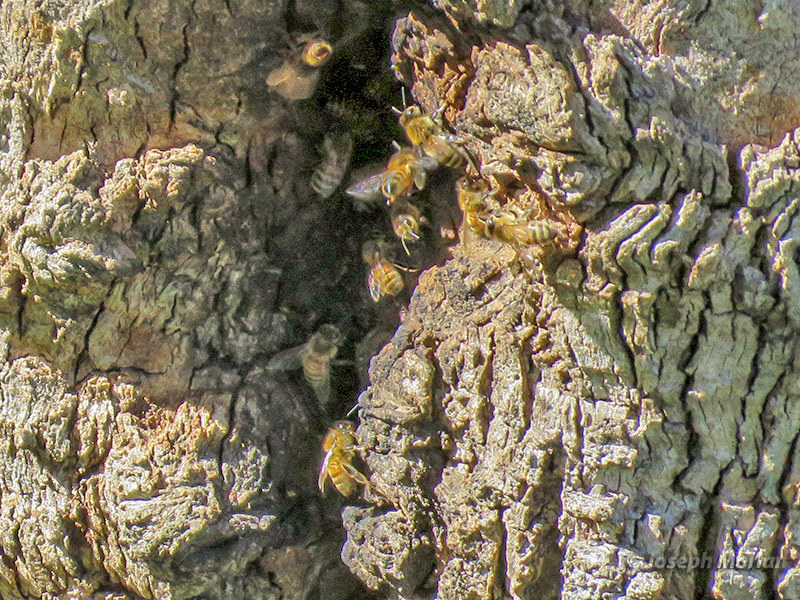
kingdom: Animalia
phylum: Arthropoda
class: Insecta
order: Hymenoptera
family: Apidae
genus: Apis
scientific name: Apis mellifera
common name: Honey bee
